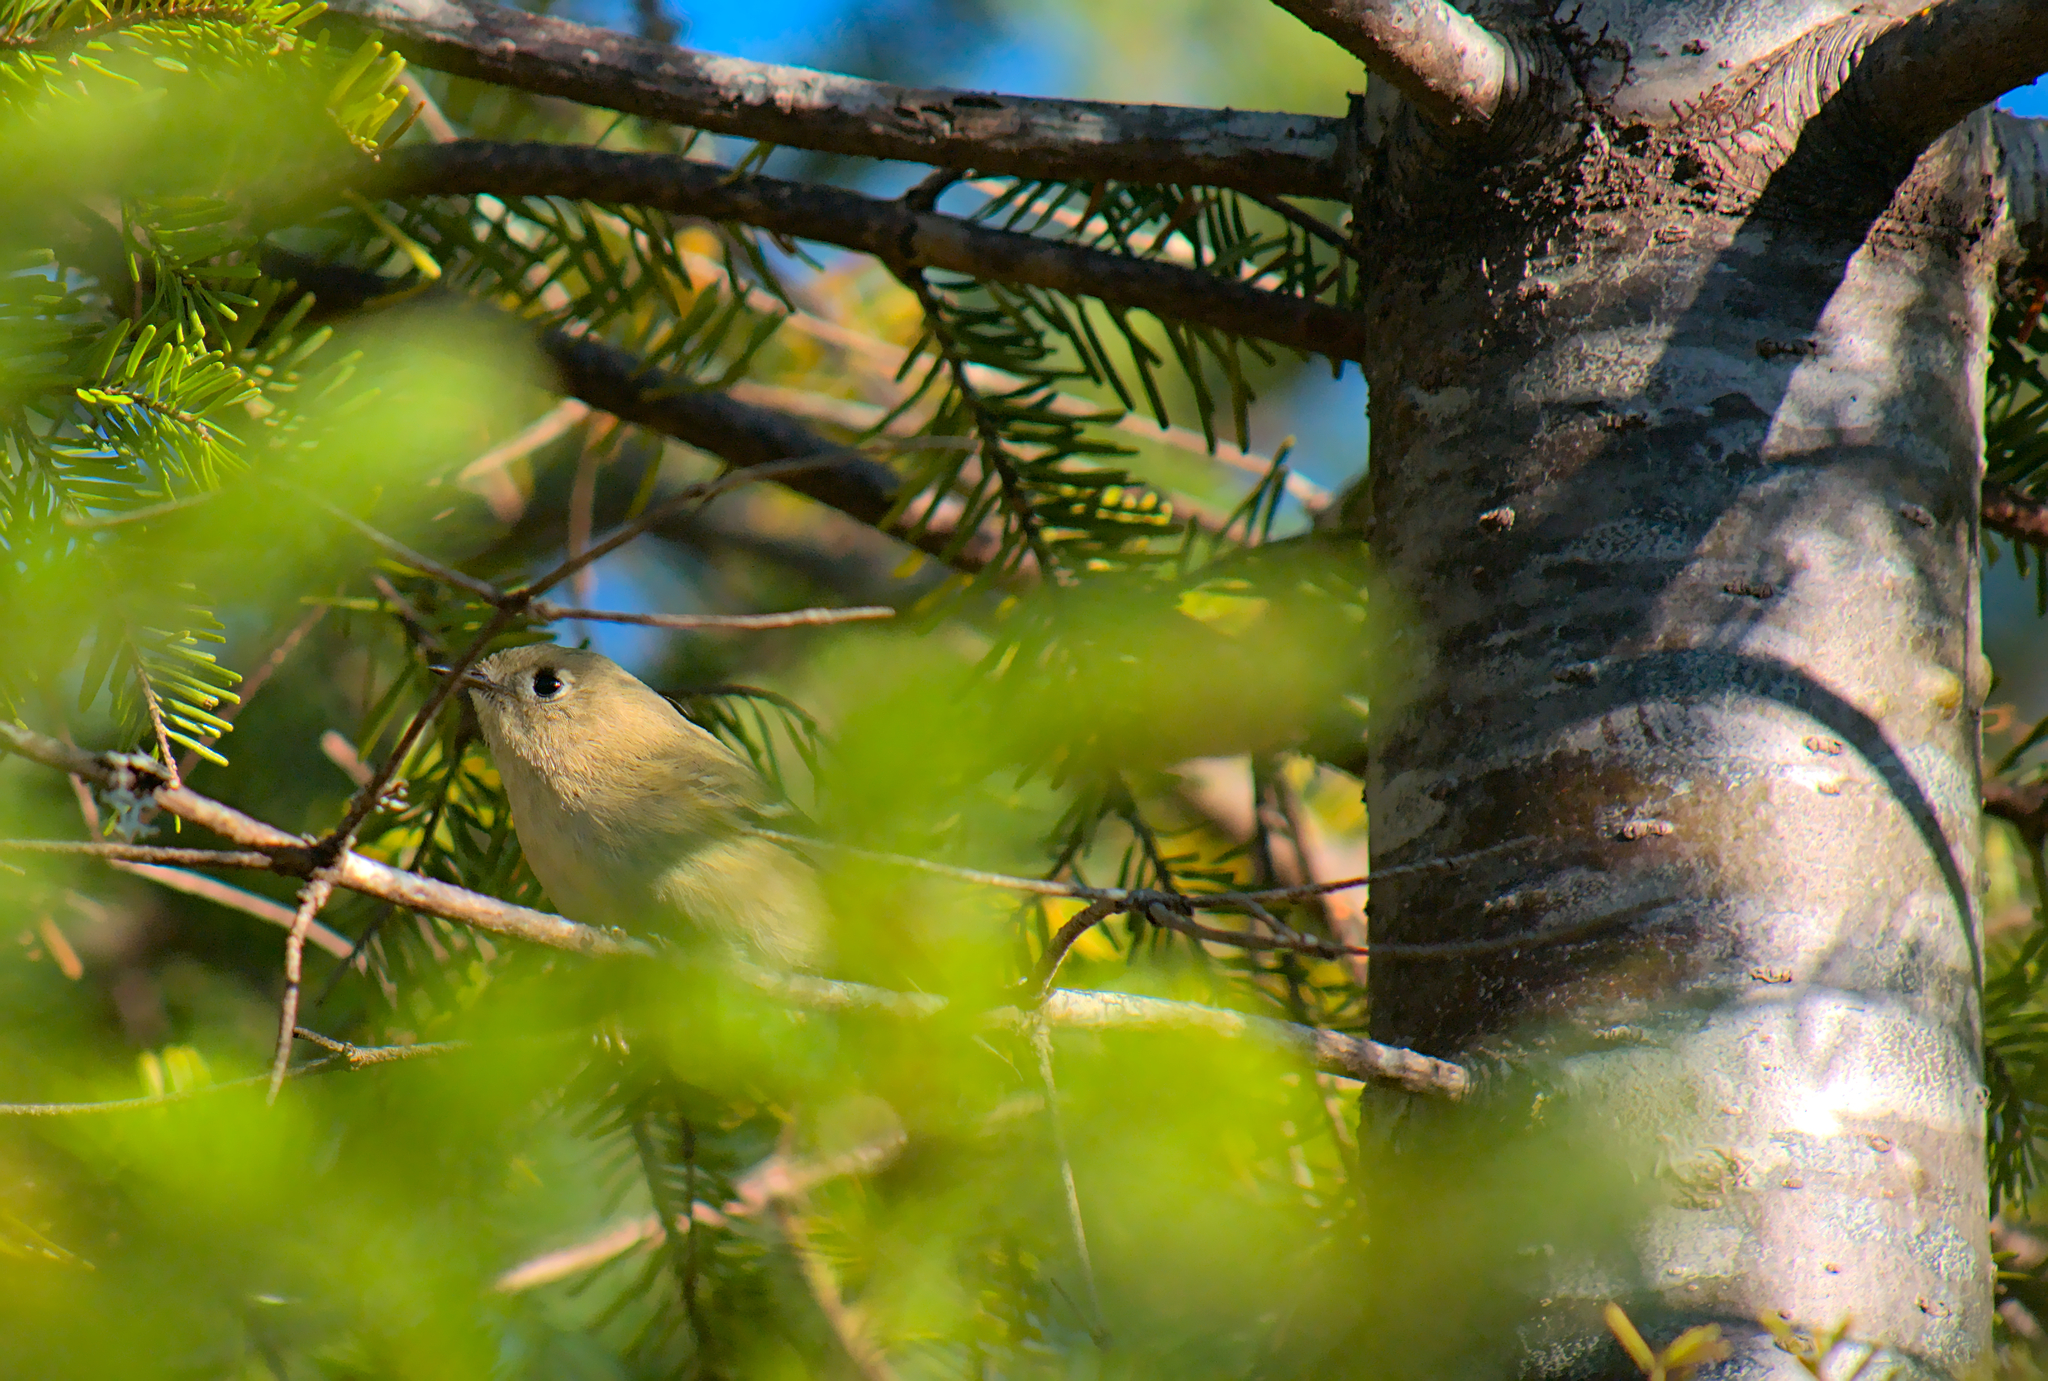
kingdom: Animalia
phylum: Chordata
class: Aves
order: Passeriformes
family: Regulidae
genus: Regulus
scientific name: Regulus calendula
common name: Ruby-crowned kinglet
